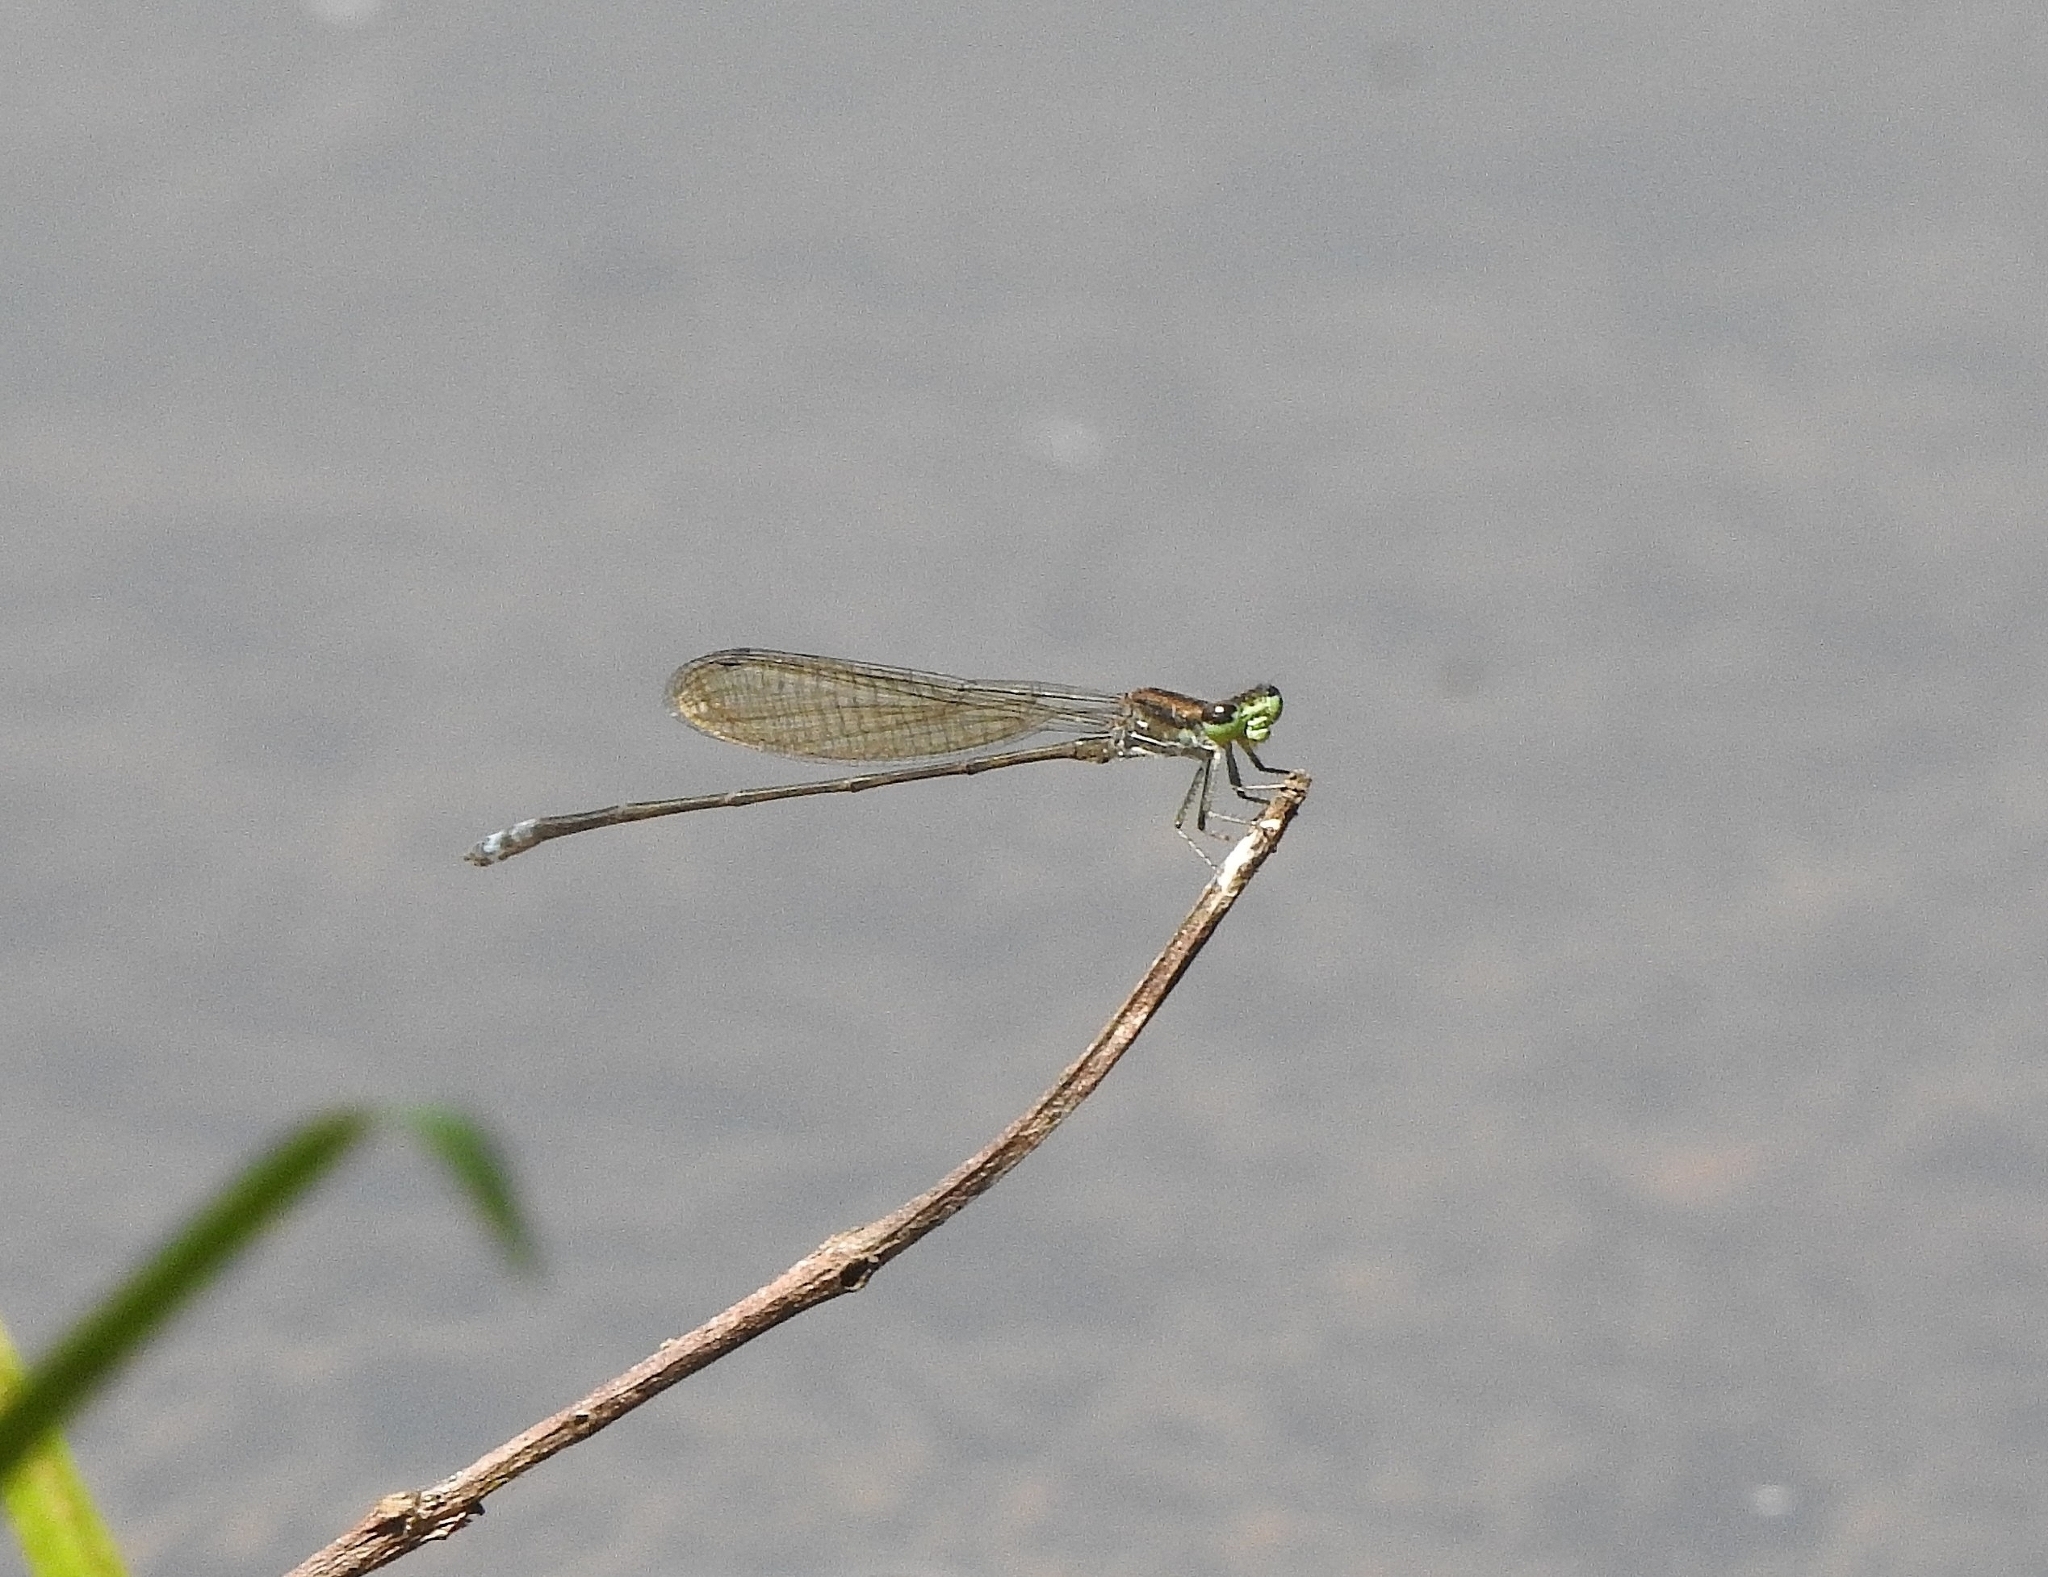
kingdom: Animalia
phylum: Arthropoda
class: Insecta
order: Odonata
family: Coenagrionidae
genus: Pseudagrion
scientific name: Pseudagrion indicum
